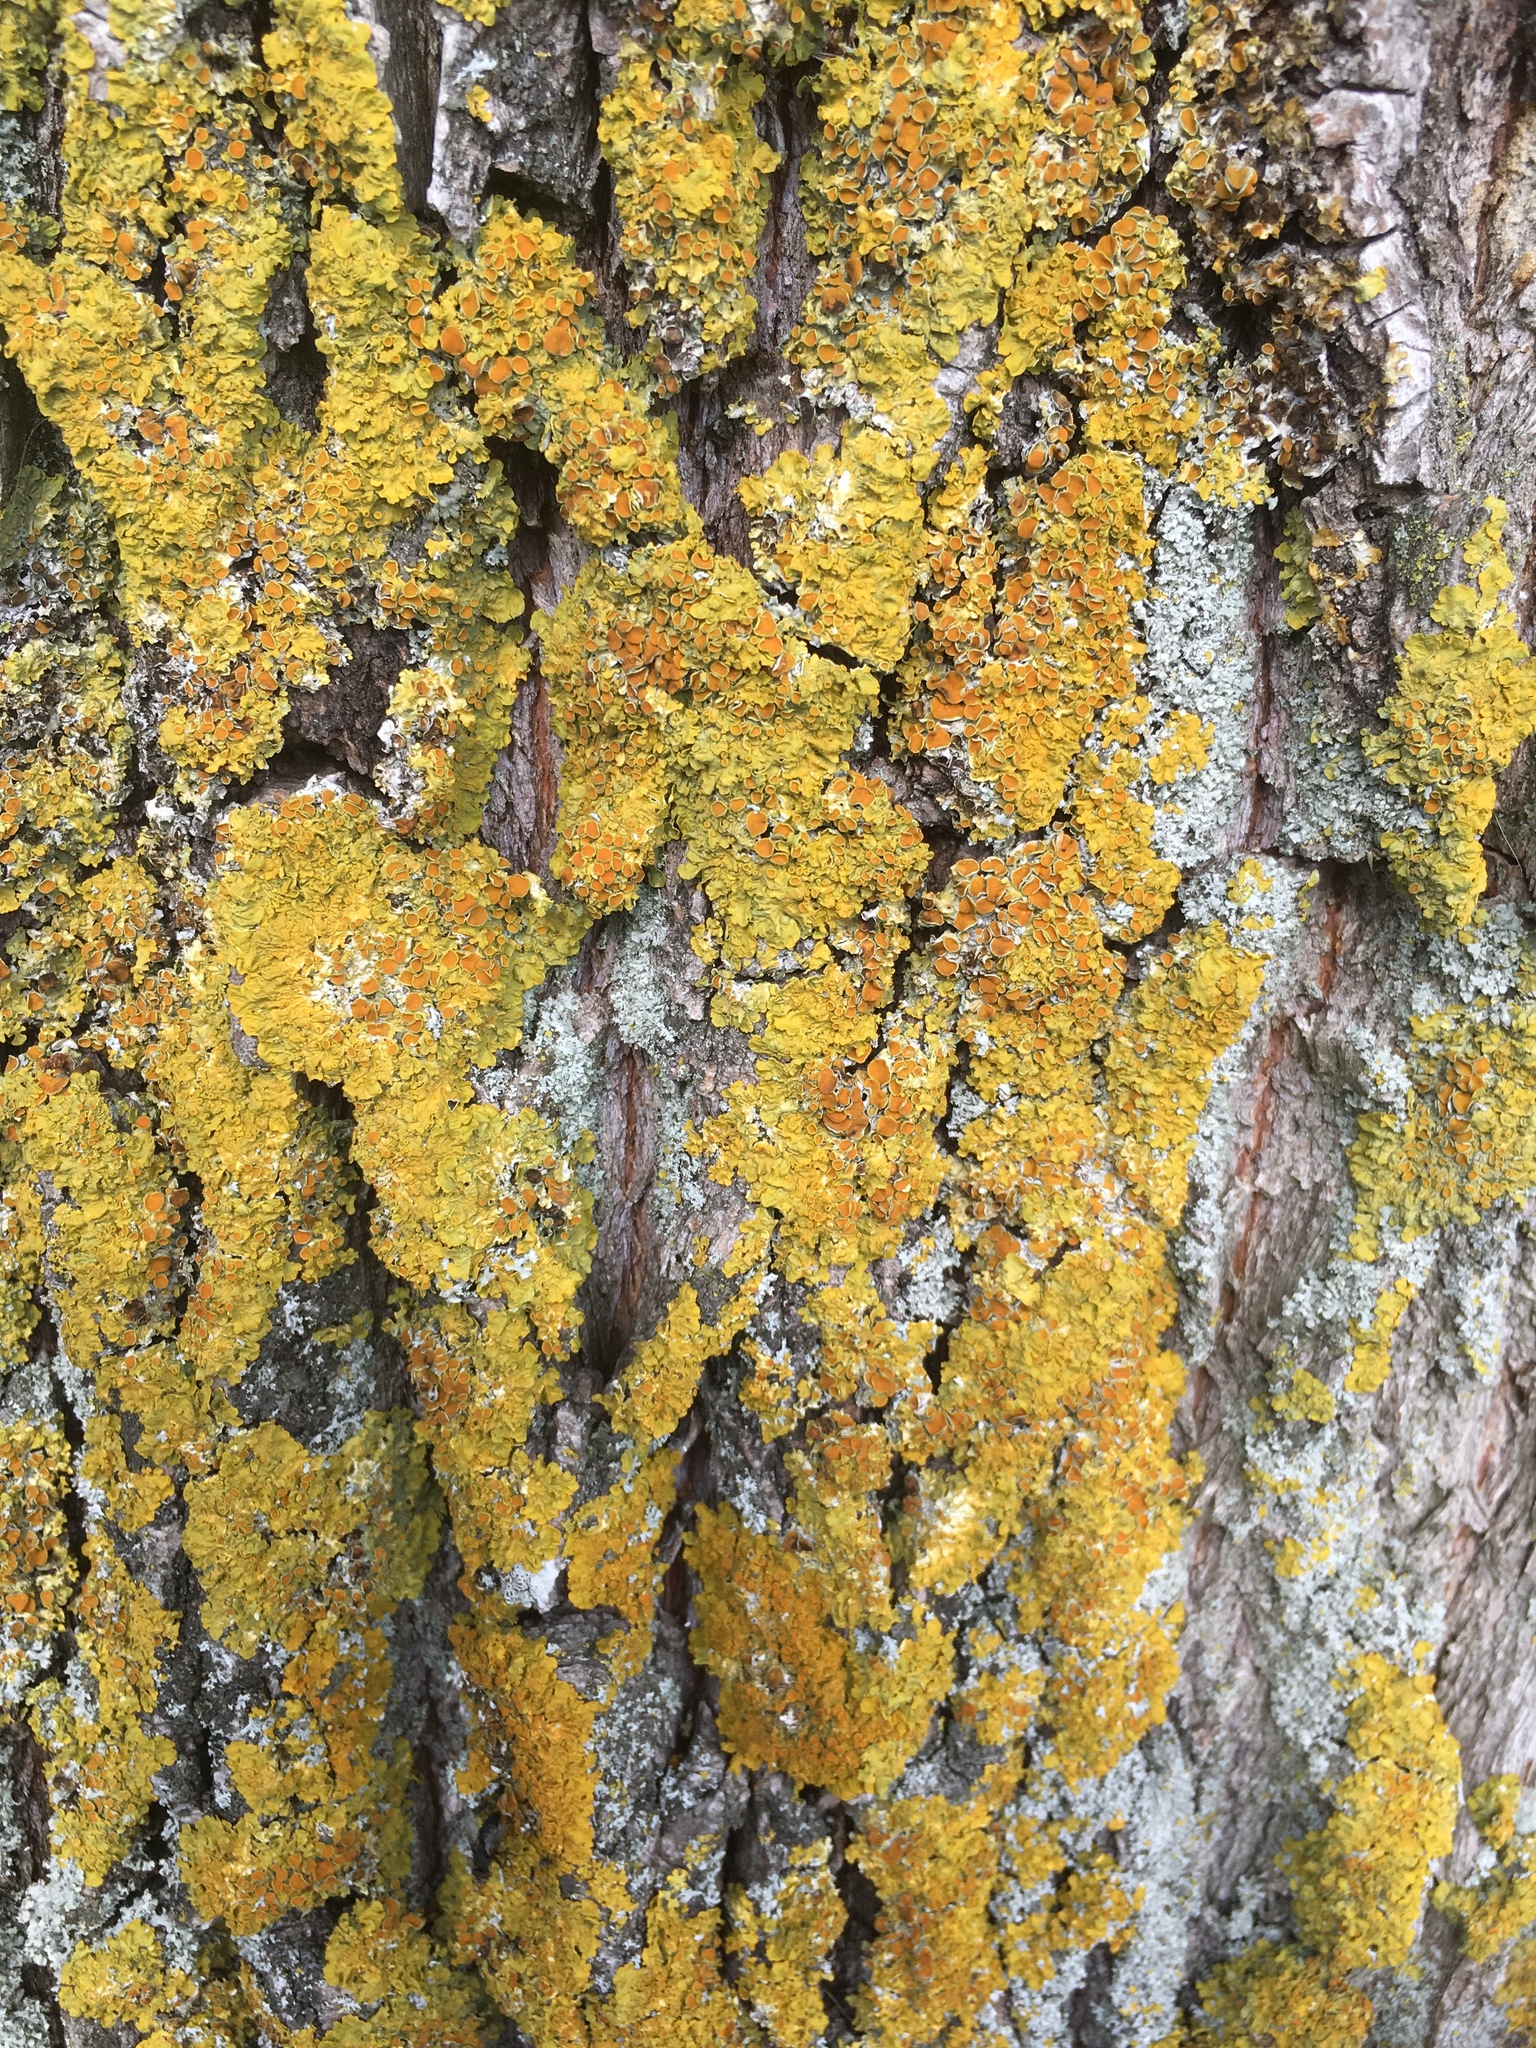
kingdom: Fungi
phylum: Ascomycota
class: Lecanoromycetes
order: Teloschistales
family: Teloschistaceae
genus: Xanthoria
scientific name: Xanthoria parietina
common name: Common orange lichen
